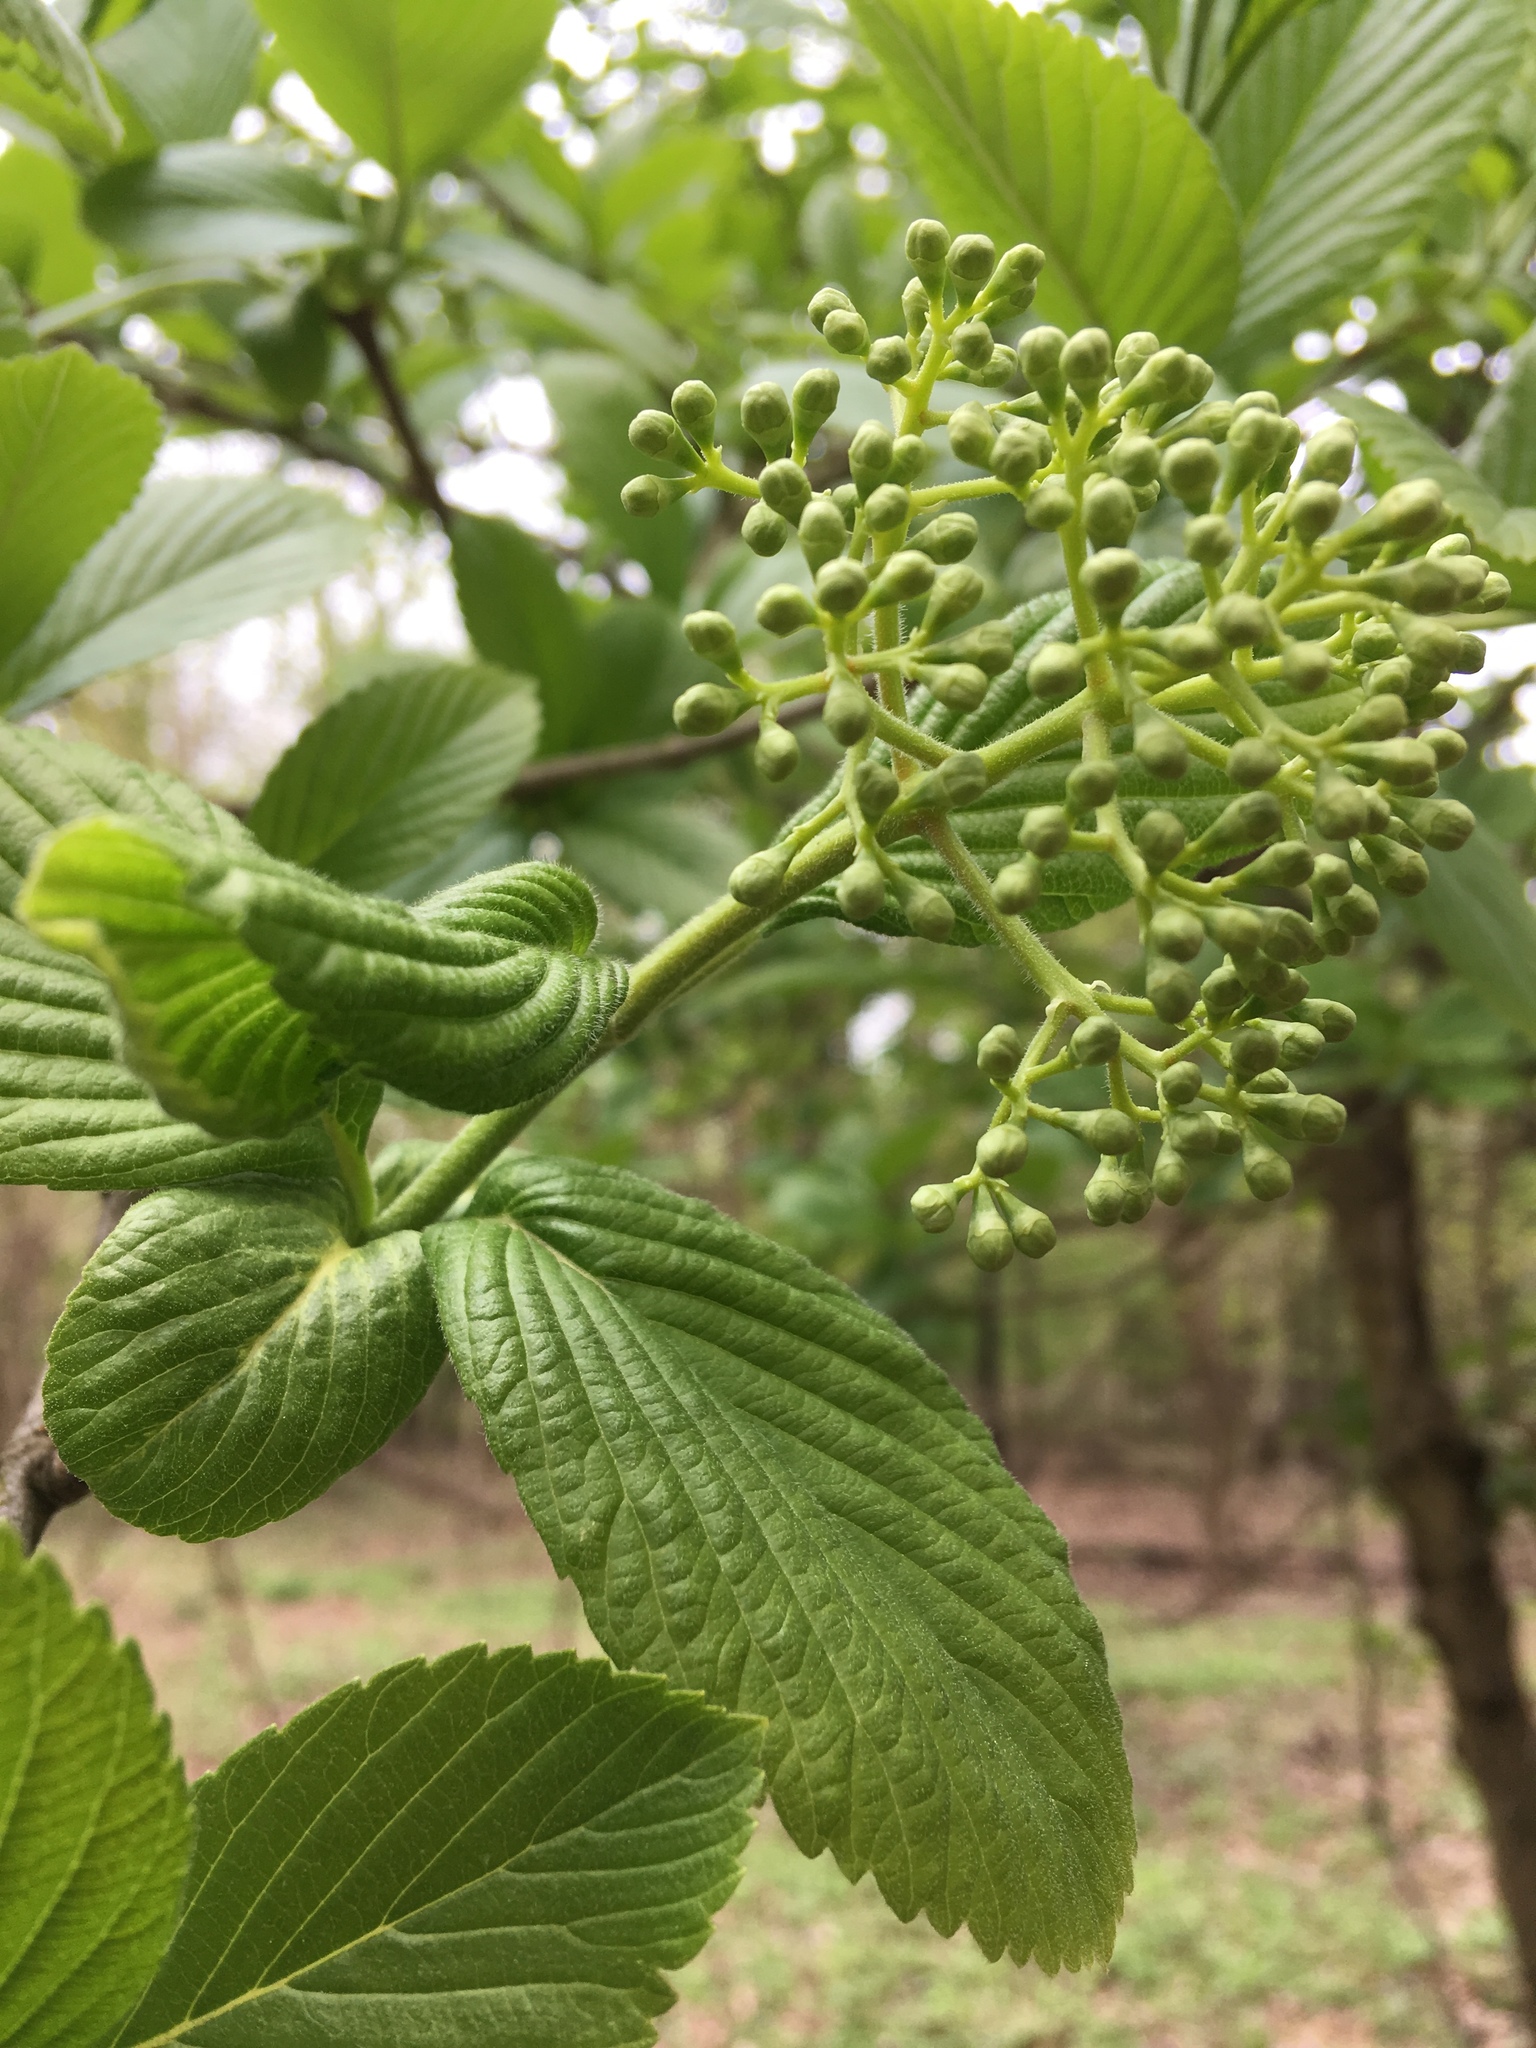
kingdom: Plantae
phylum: Tracheophyta
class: Magnoliopsida
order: Dipsacales
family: Viburnaceae
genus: Viburnum
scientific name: Viburnum sieboldii
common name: Siebold's arrowwood
